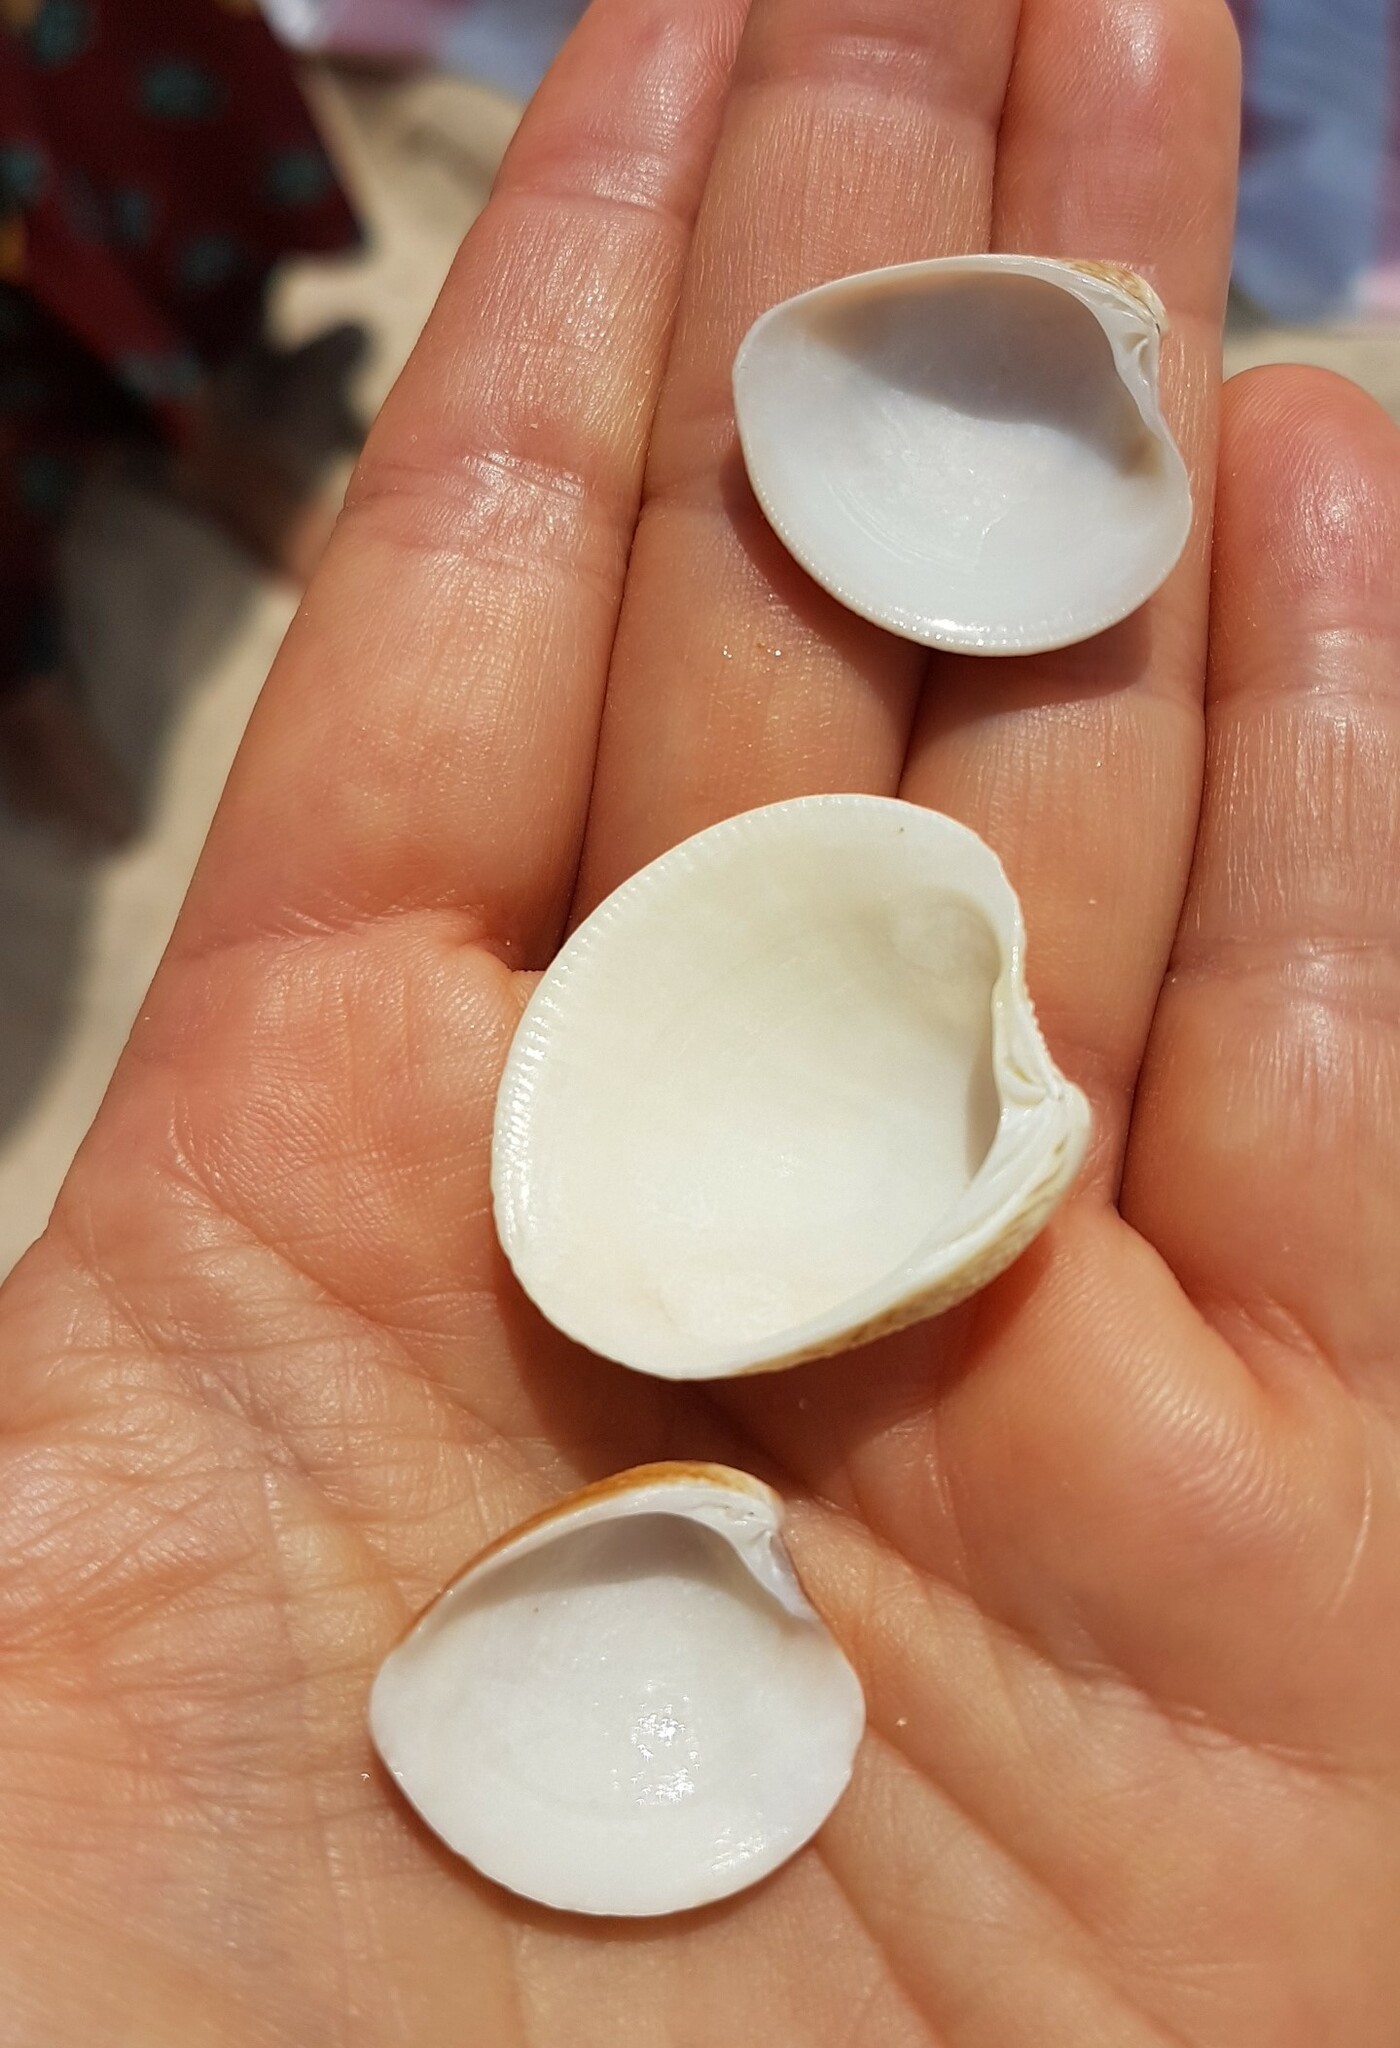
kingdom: Animalia
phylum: Mollusca
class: Bivalvia
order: Venerida
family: Veneridae
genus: Chamelea
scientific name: Chamelea striatula
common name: Striped venus
